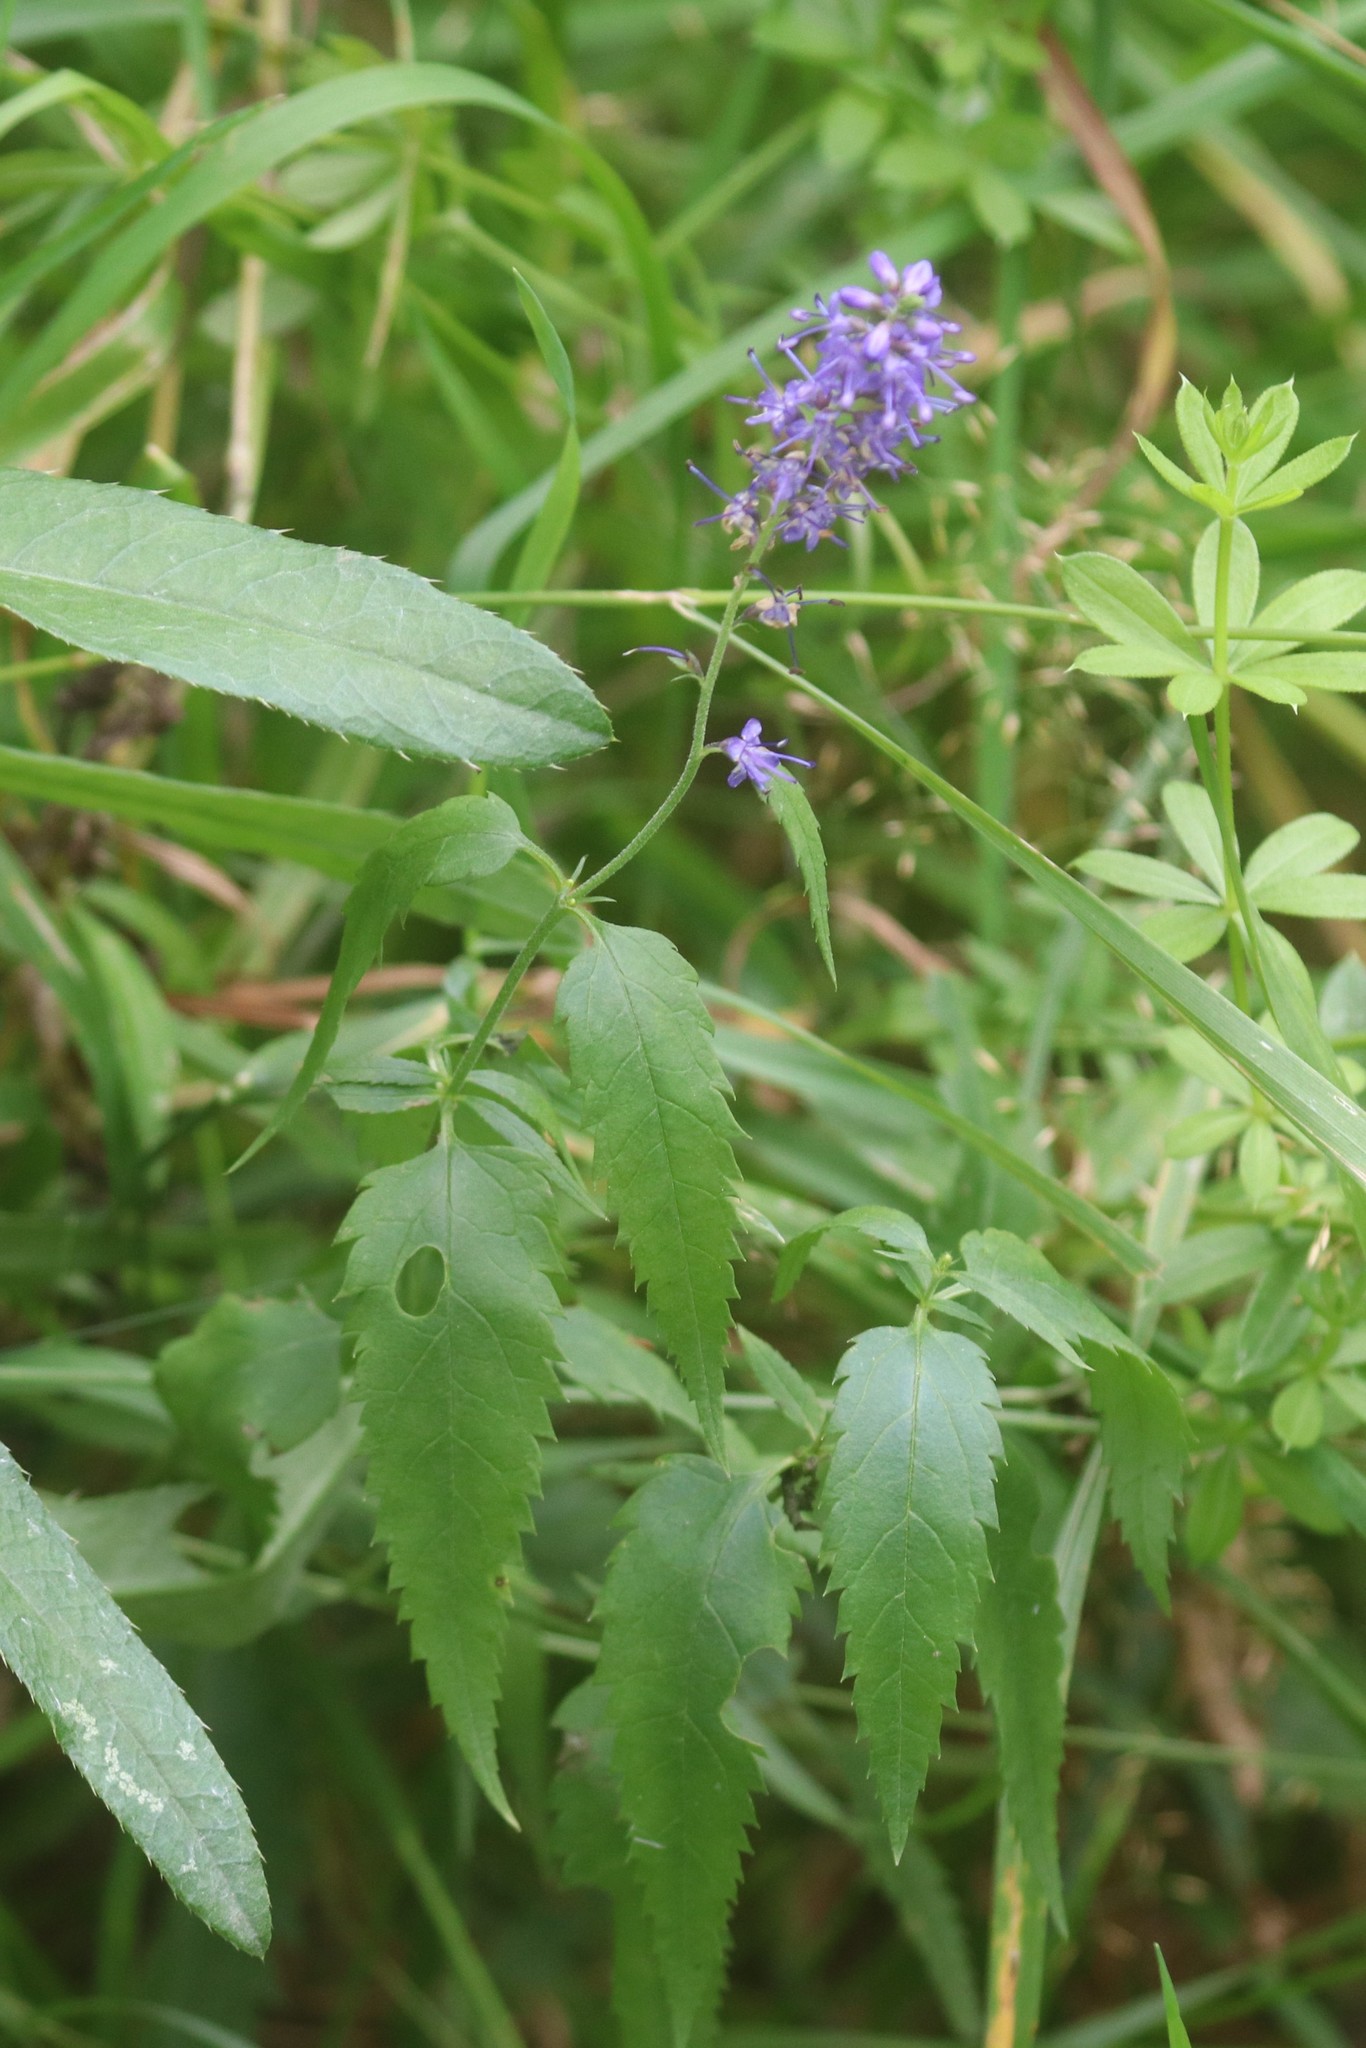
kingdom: Plantae
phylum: Tracheophyta
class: Magnoliopsida
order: Lamiales
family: Plantaginaceae
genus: Veronica
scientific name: Veronica longifolia
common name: Garden speedwell
